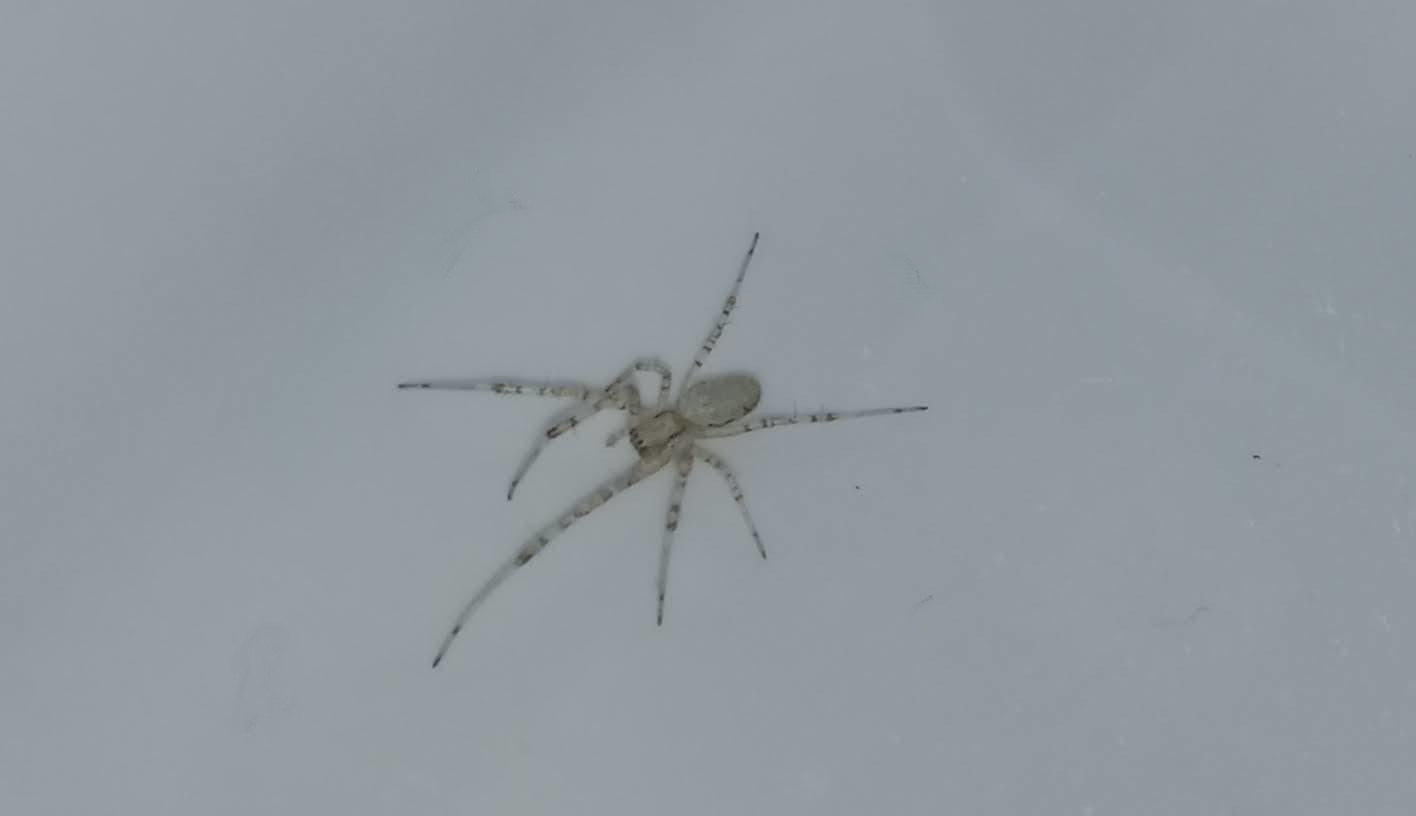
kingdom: Animalia
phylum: Arthropoda
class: Arachnida
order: Araneae
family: Araneidae
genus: Nephilingis
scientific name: Nephilingis cruentata
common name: African hermit spider
